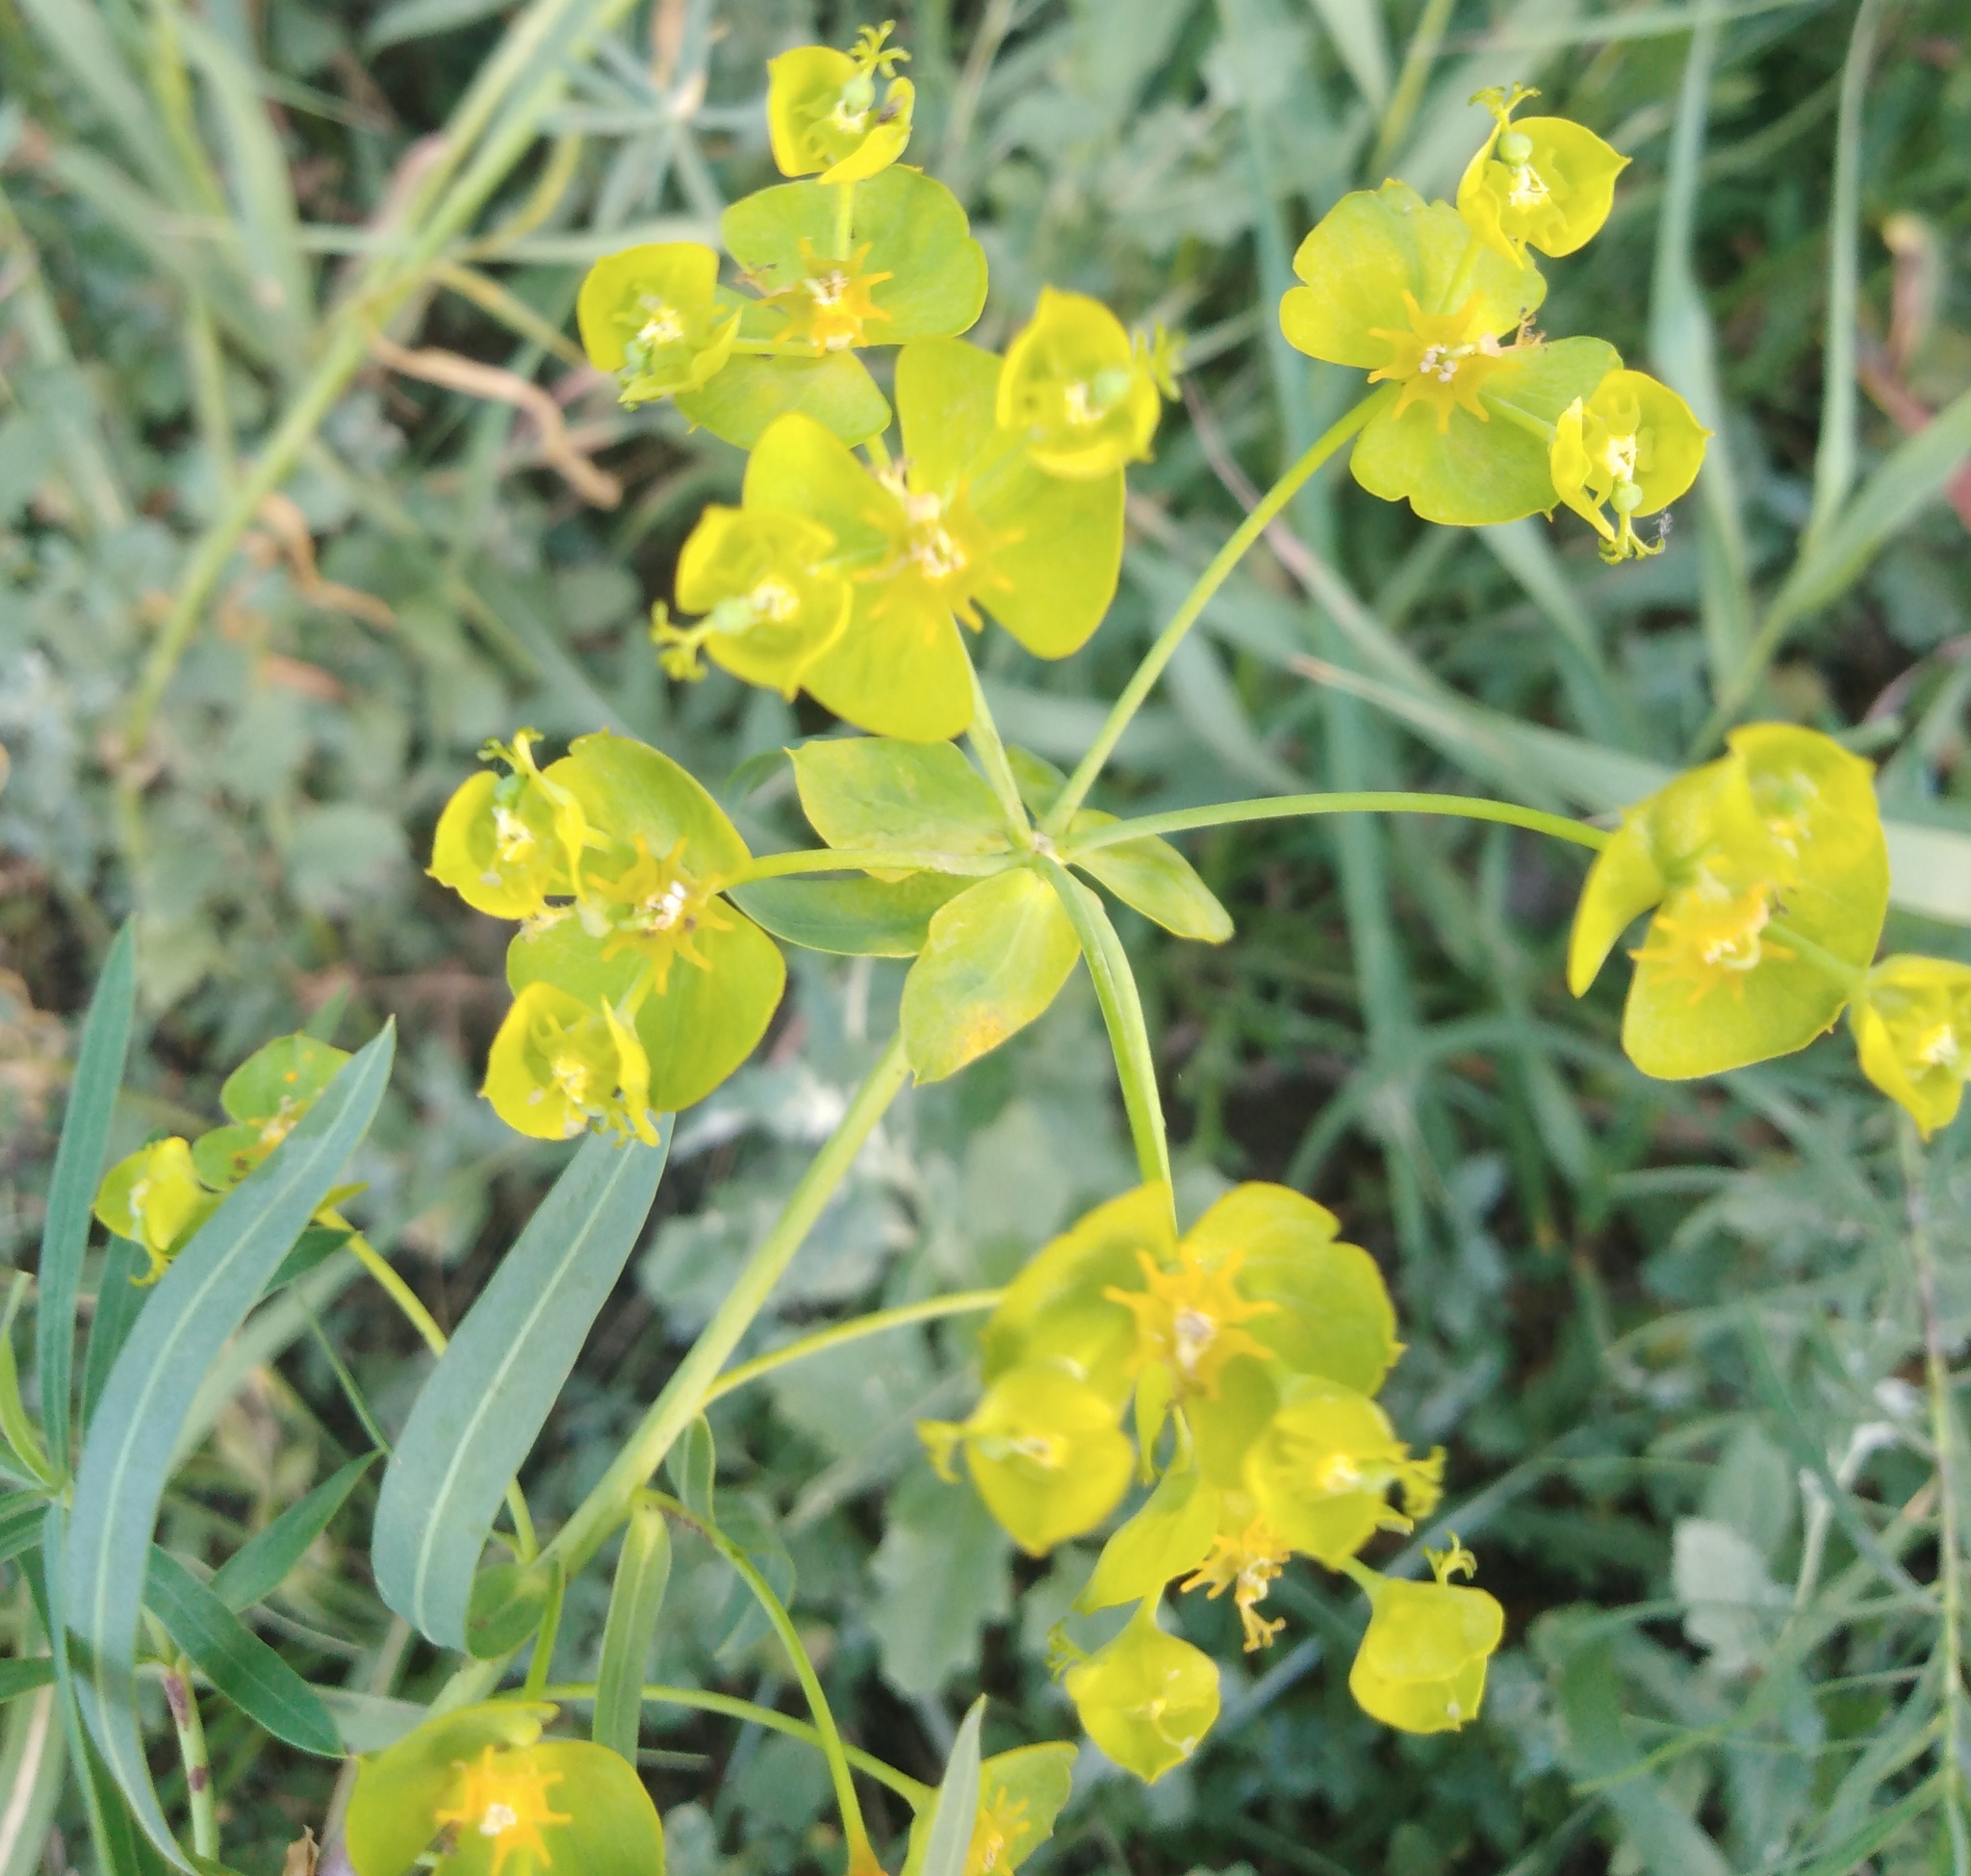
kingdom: Plantae
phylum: Tracheophyta
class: Magnoliopsida
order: Malpighiales
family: Euphorbiaceae
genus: Euphorbia
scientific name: Euphorbia virgata
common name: Leafy spurge
